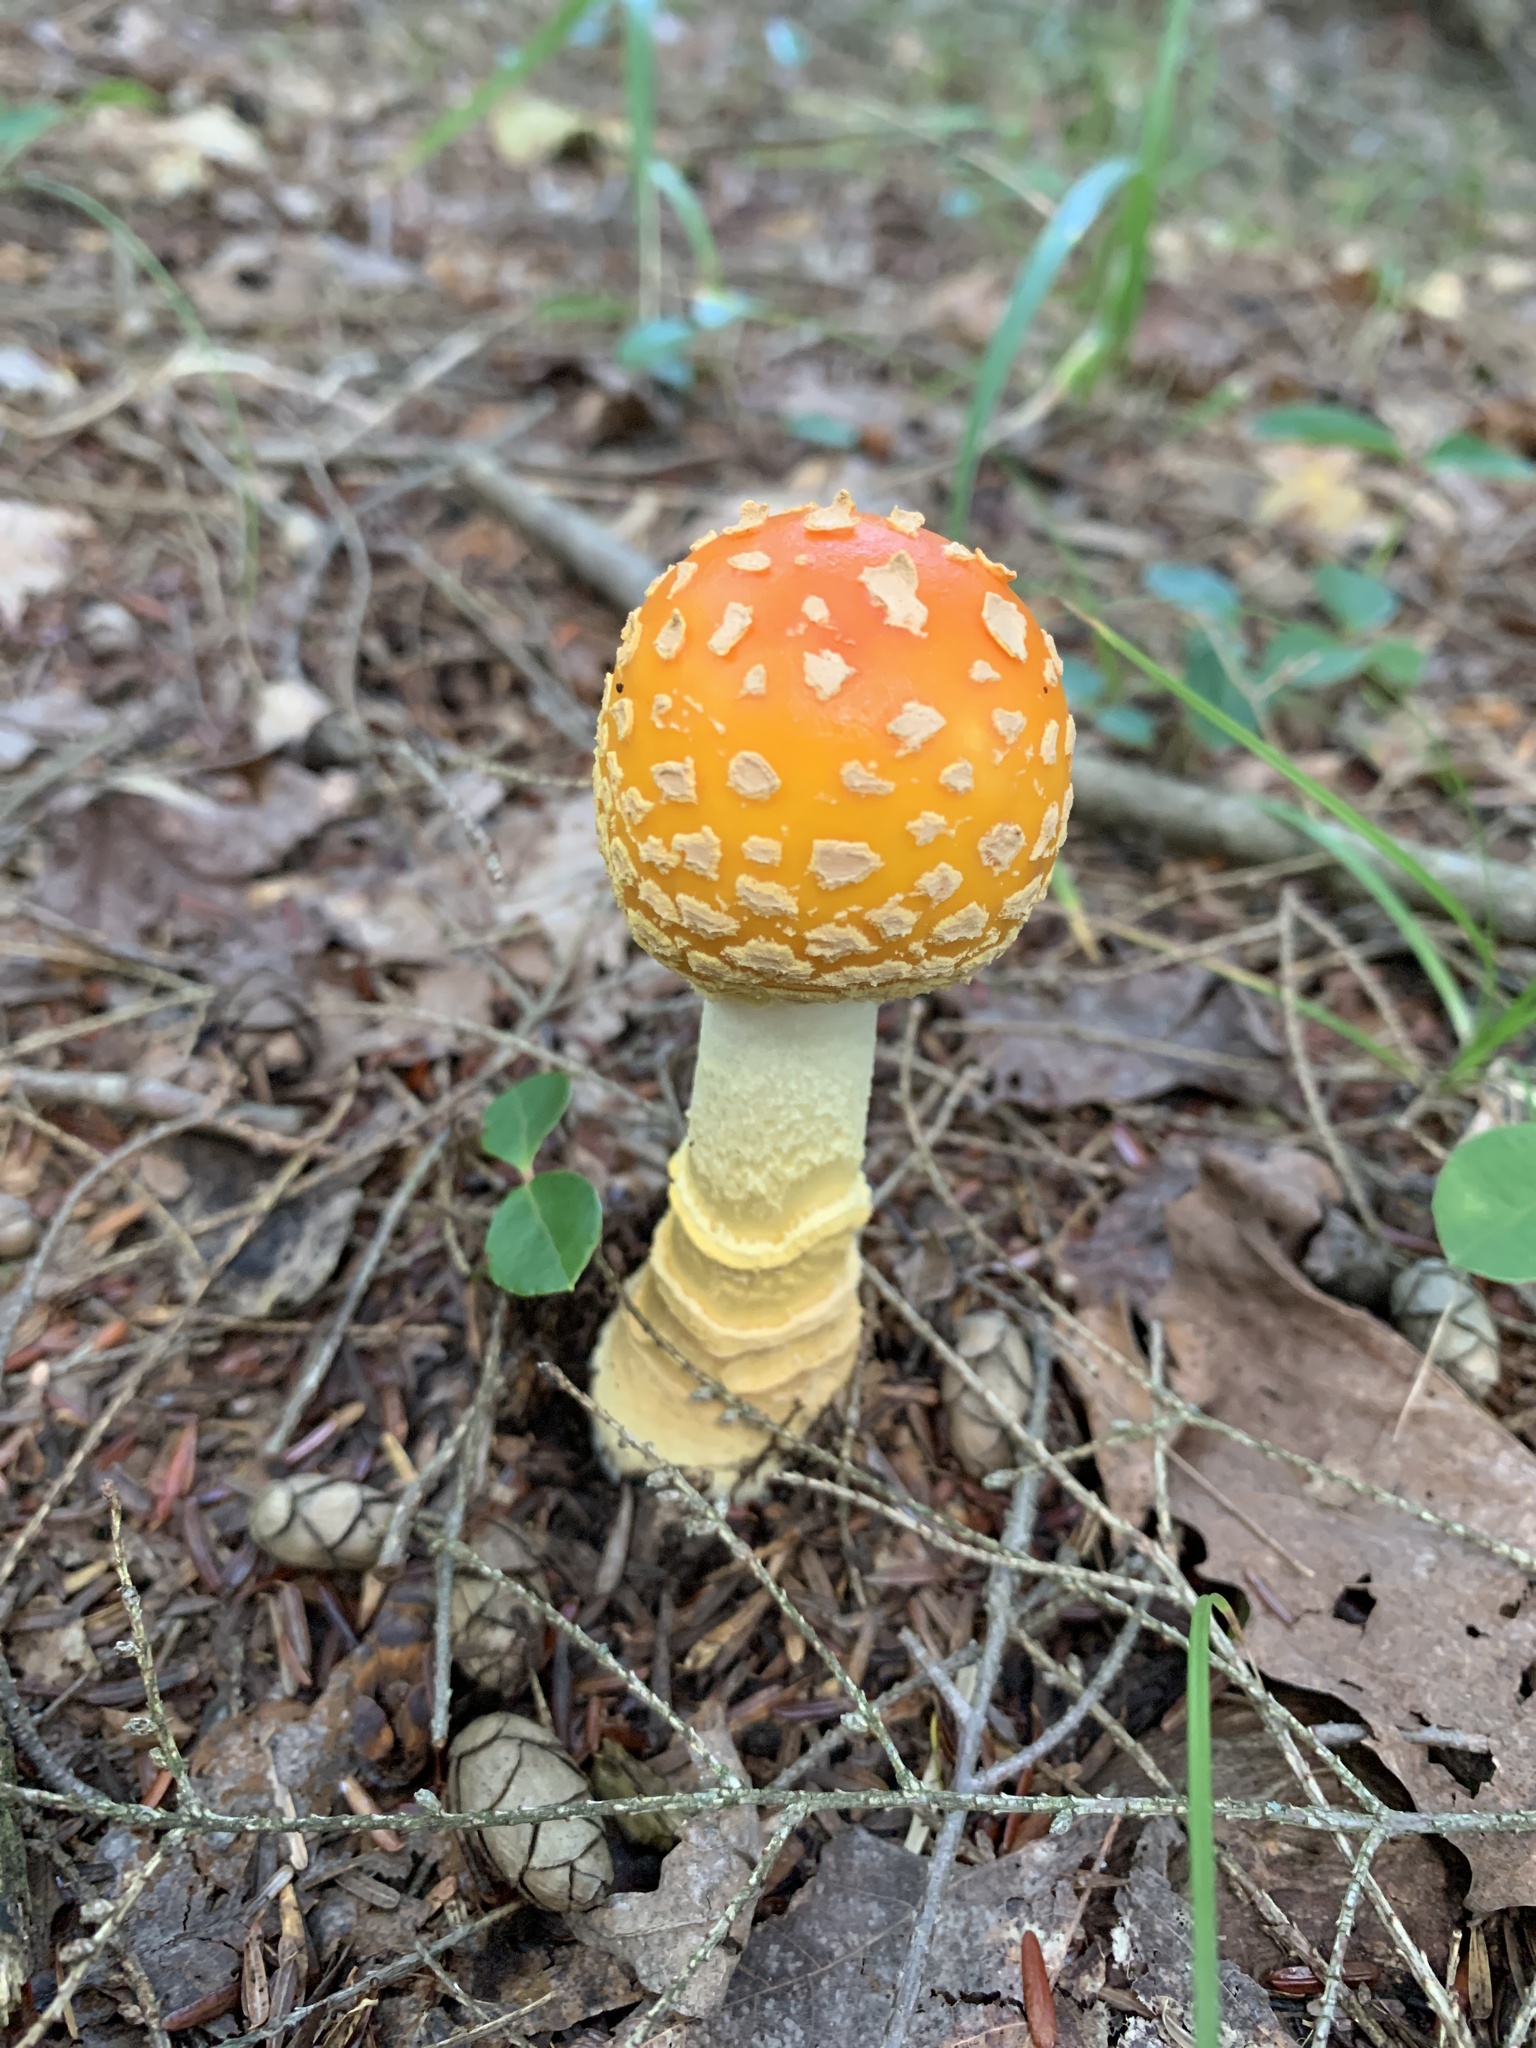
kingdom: Fungi
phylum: Basidiomycota
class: Agaricomycetes
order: Agaricales
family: Amanitaceae
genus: Amanita
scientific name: Amanita muscaria
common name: Fly agaric
